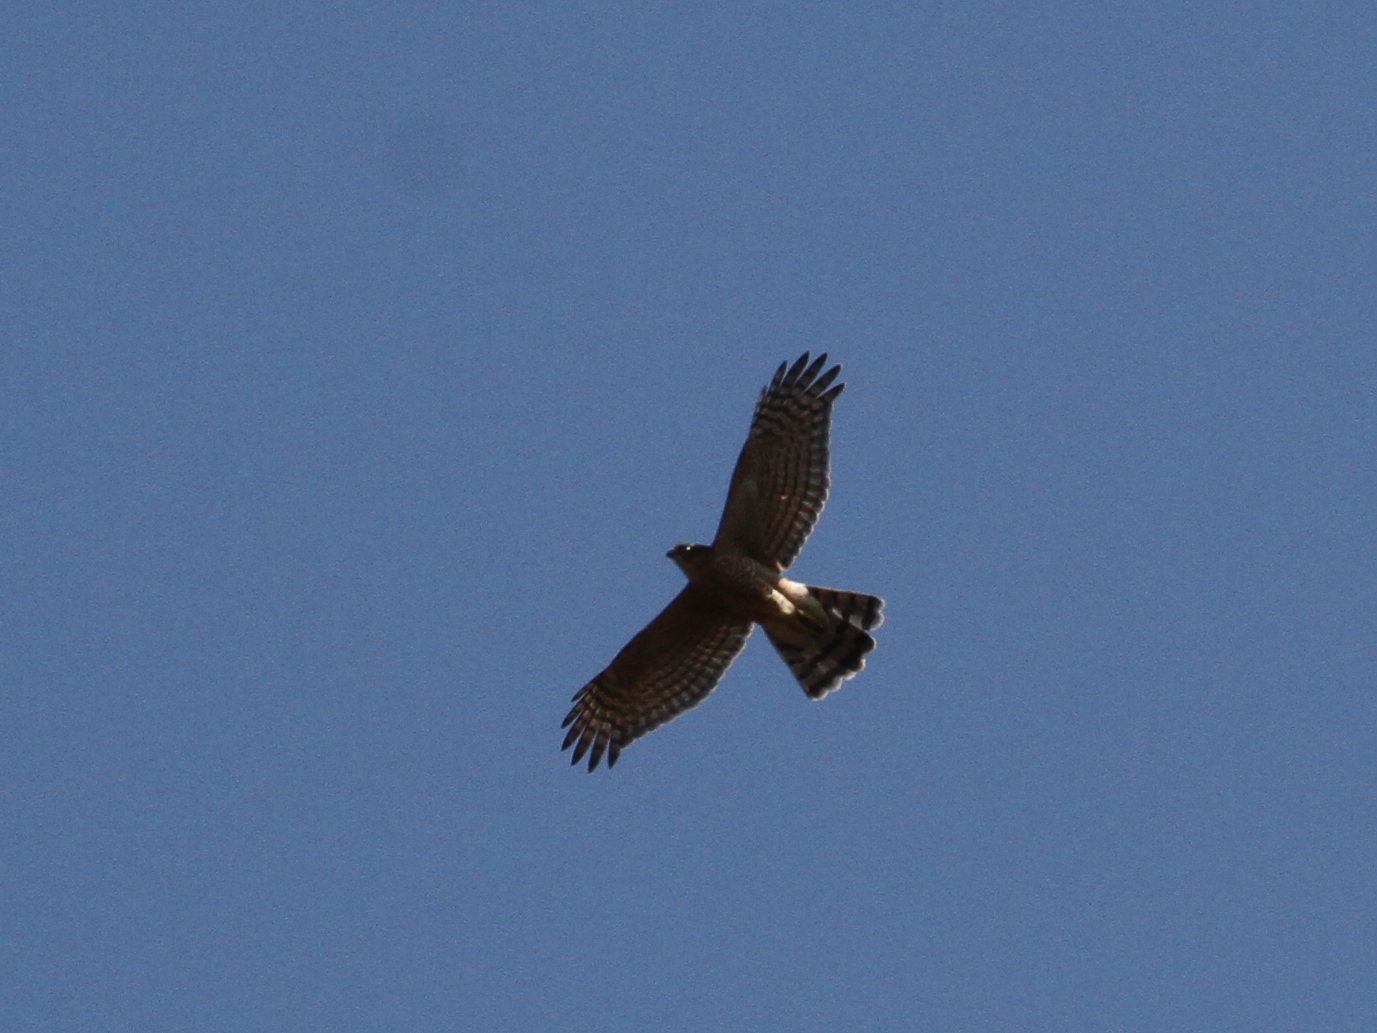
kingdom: Animalia
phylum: Chordata
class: Aves
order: Accipitriformes
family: Accipitridae
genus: Accipiter
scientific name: Accipiter nisus
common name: Eurasian sparrowhawk
